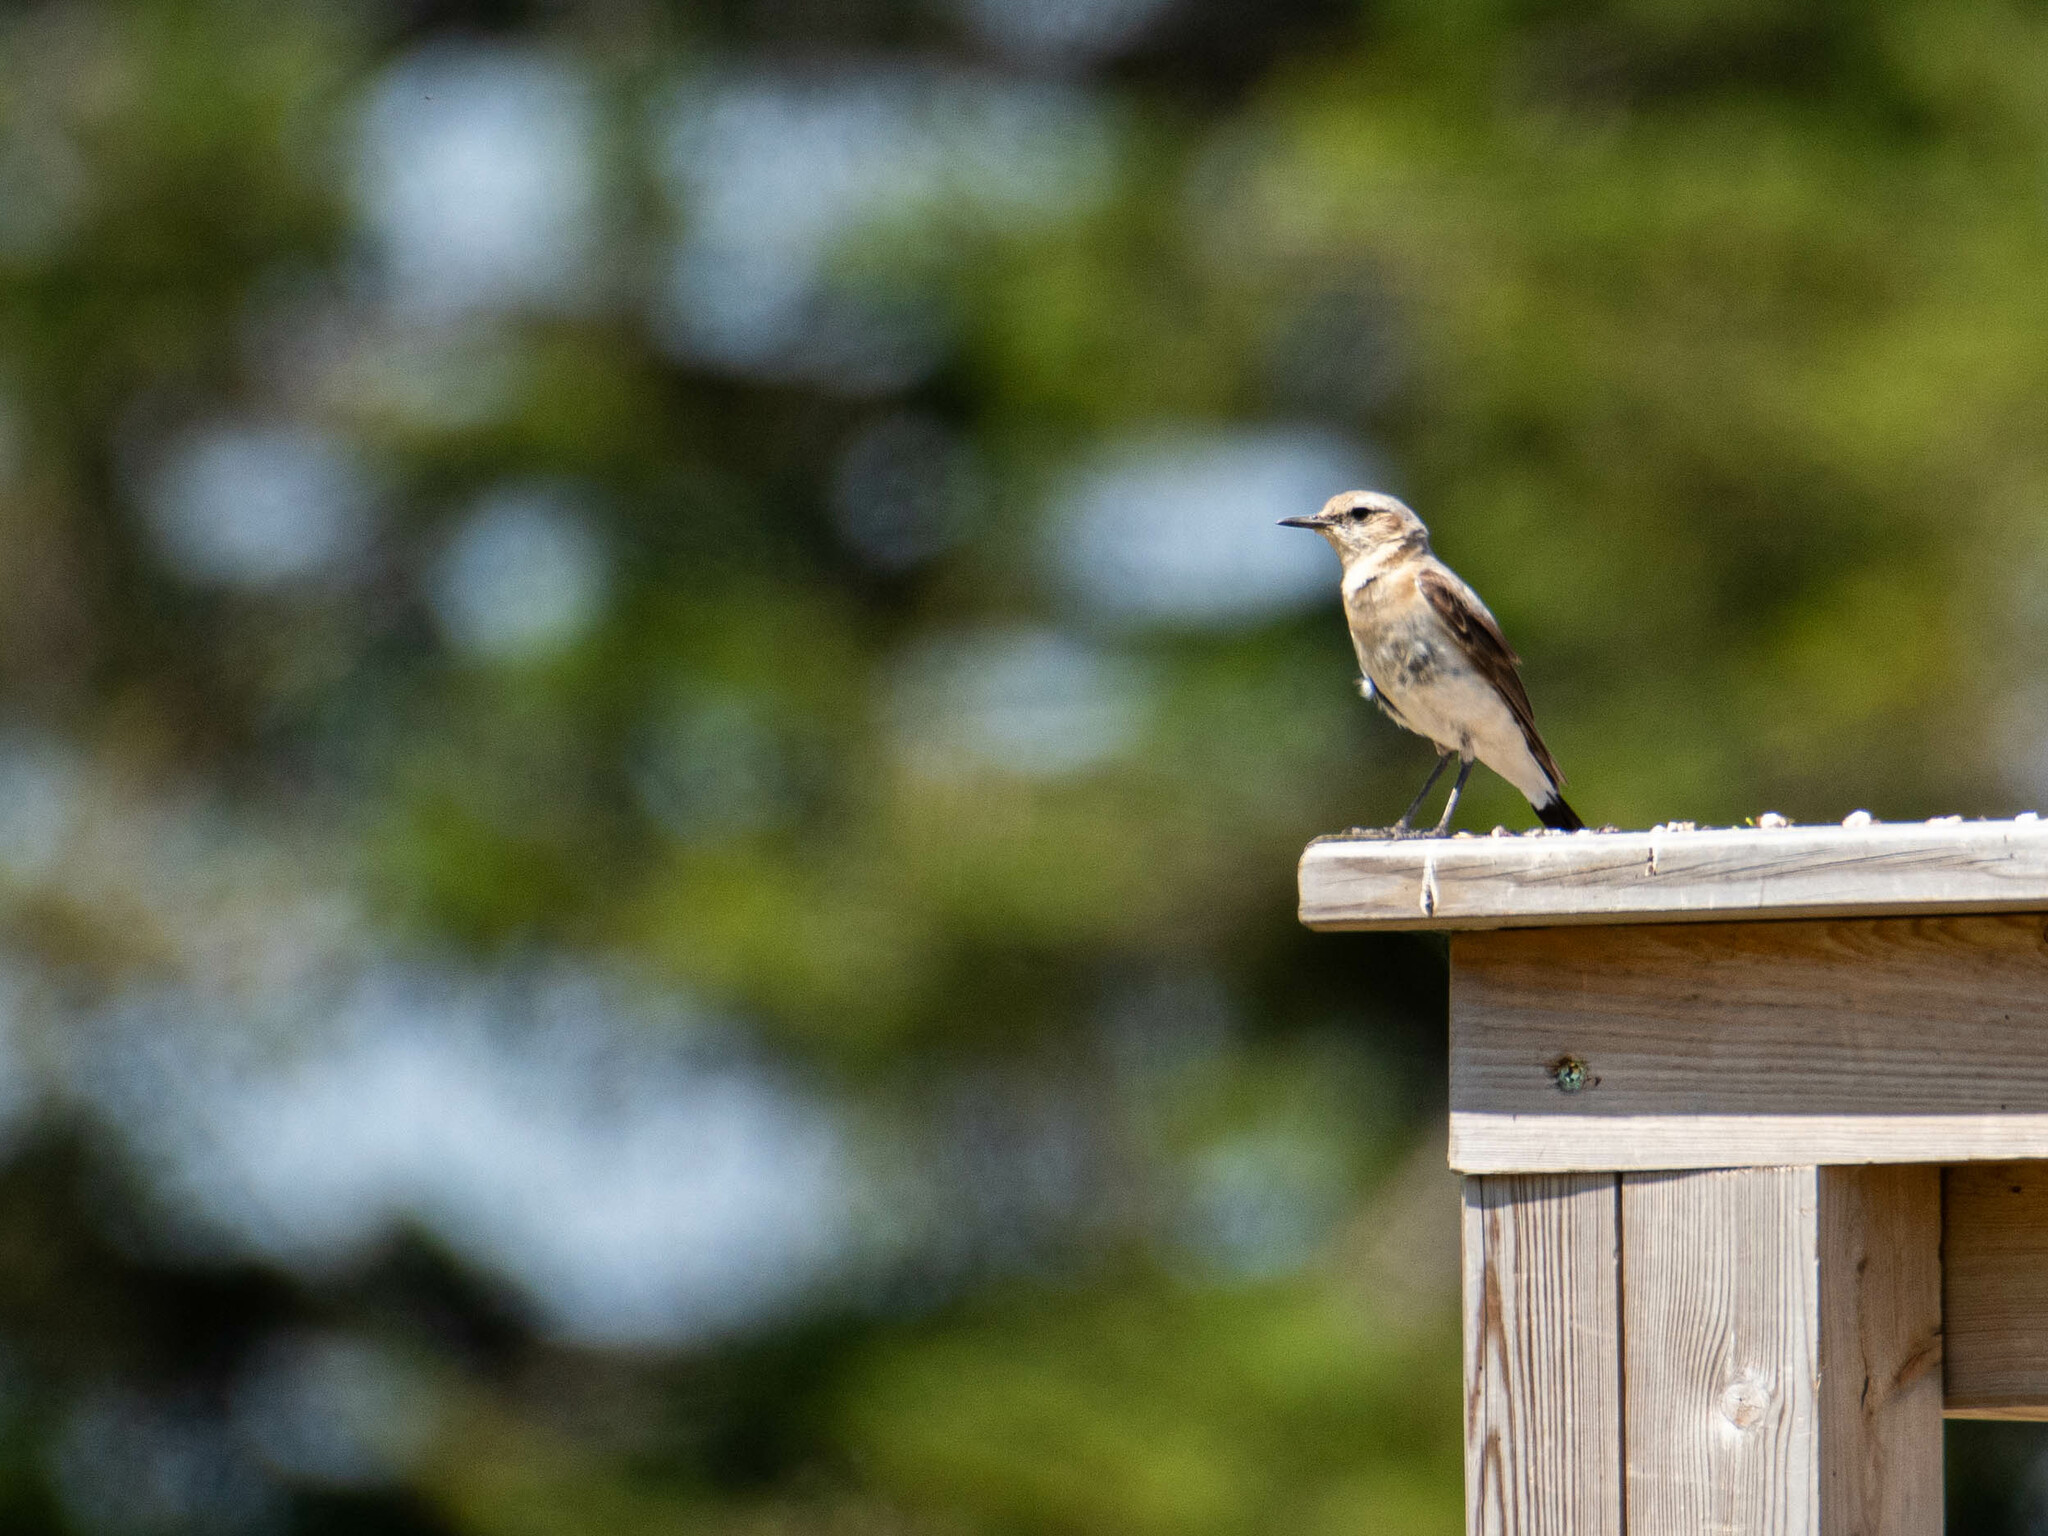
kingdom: Animalia
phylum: Chordata
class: Aves
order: Passeriformes
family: Muscicapidae
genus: Oenanthe
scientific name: Oenanthe oenanthe
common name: Northern wheatear
